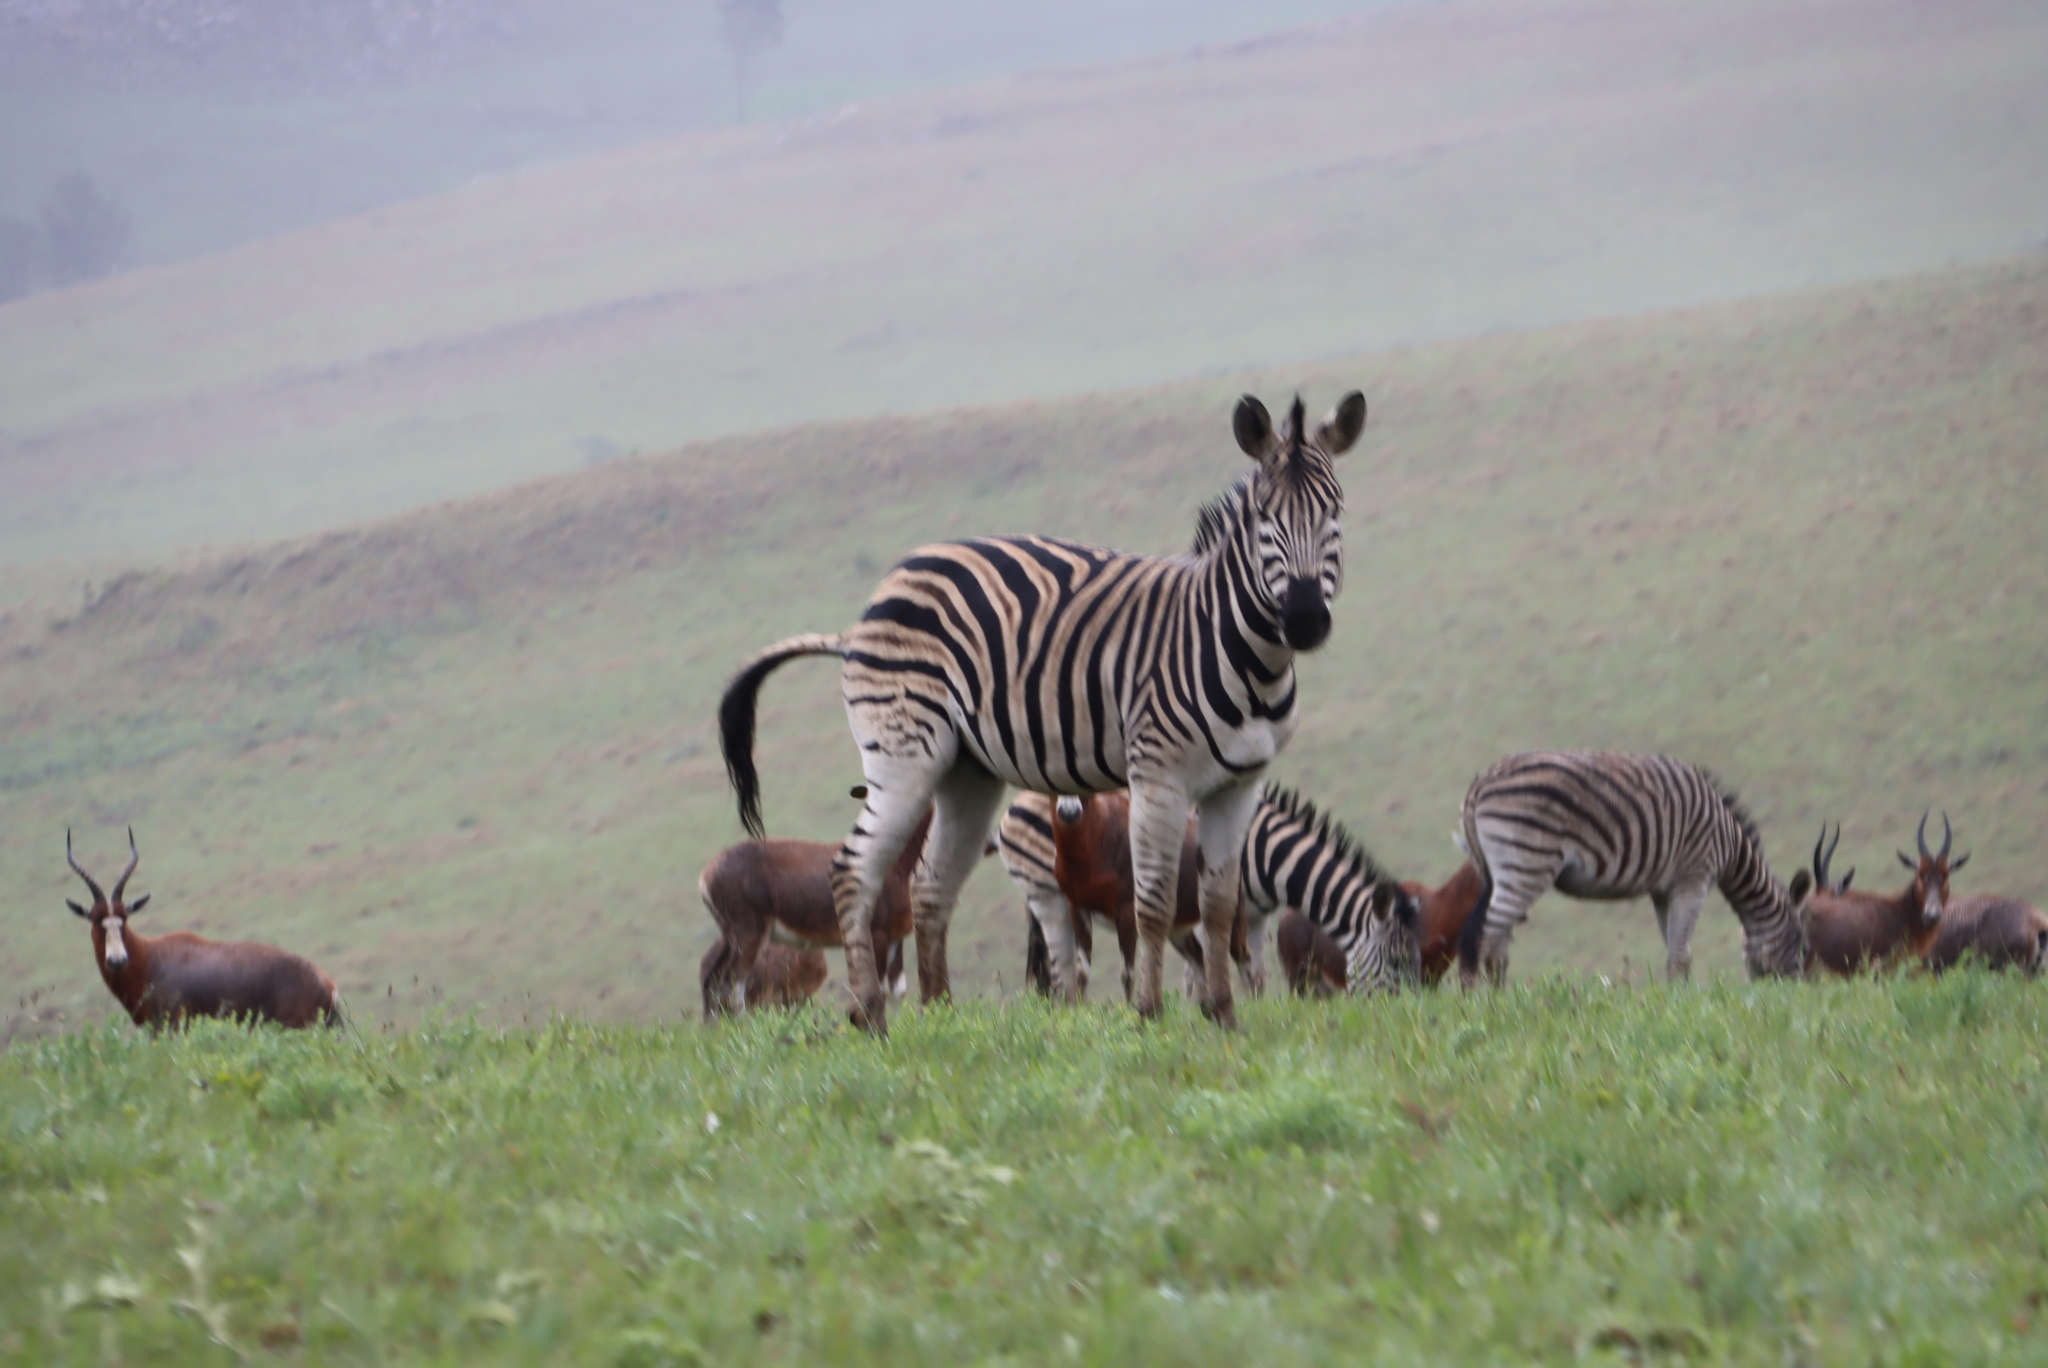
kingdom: Animalia
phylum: Chordata
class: Mammalia
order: Perissodactyla
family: Equidae
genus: Equus
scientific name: Equus quagga
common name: Plains zebra
